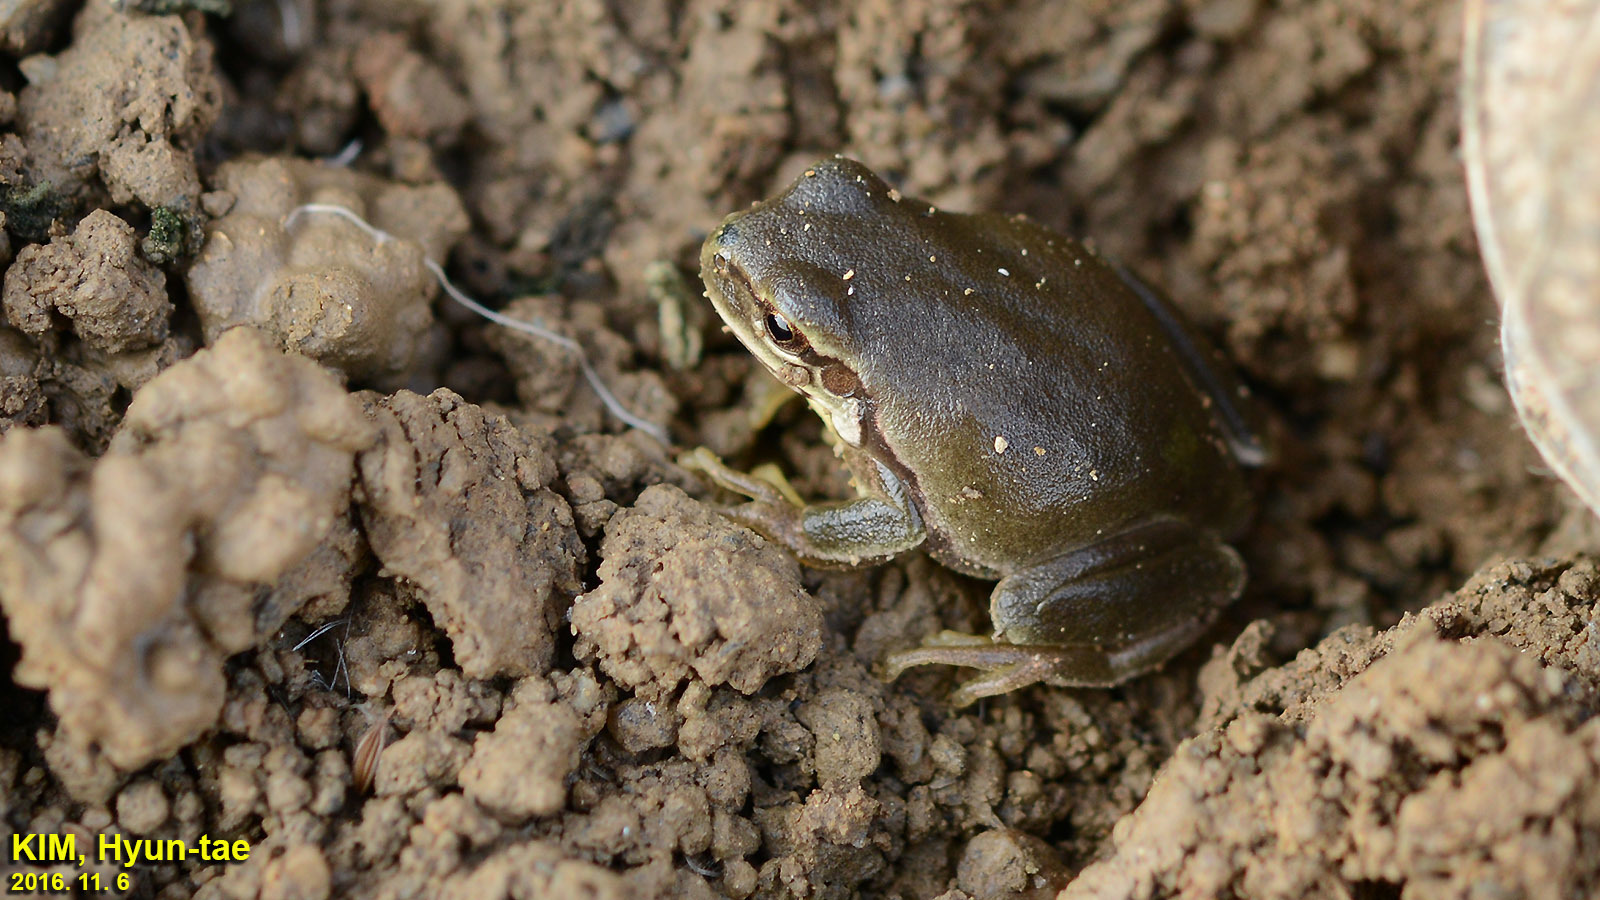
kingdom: Animalia
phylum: Chordata
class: Amphibia
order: Anura
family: Hylidae
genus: Dryophytes
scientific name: Dryophytes immaculatus
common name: North china treefrog
